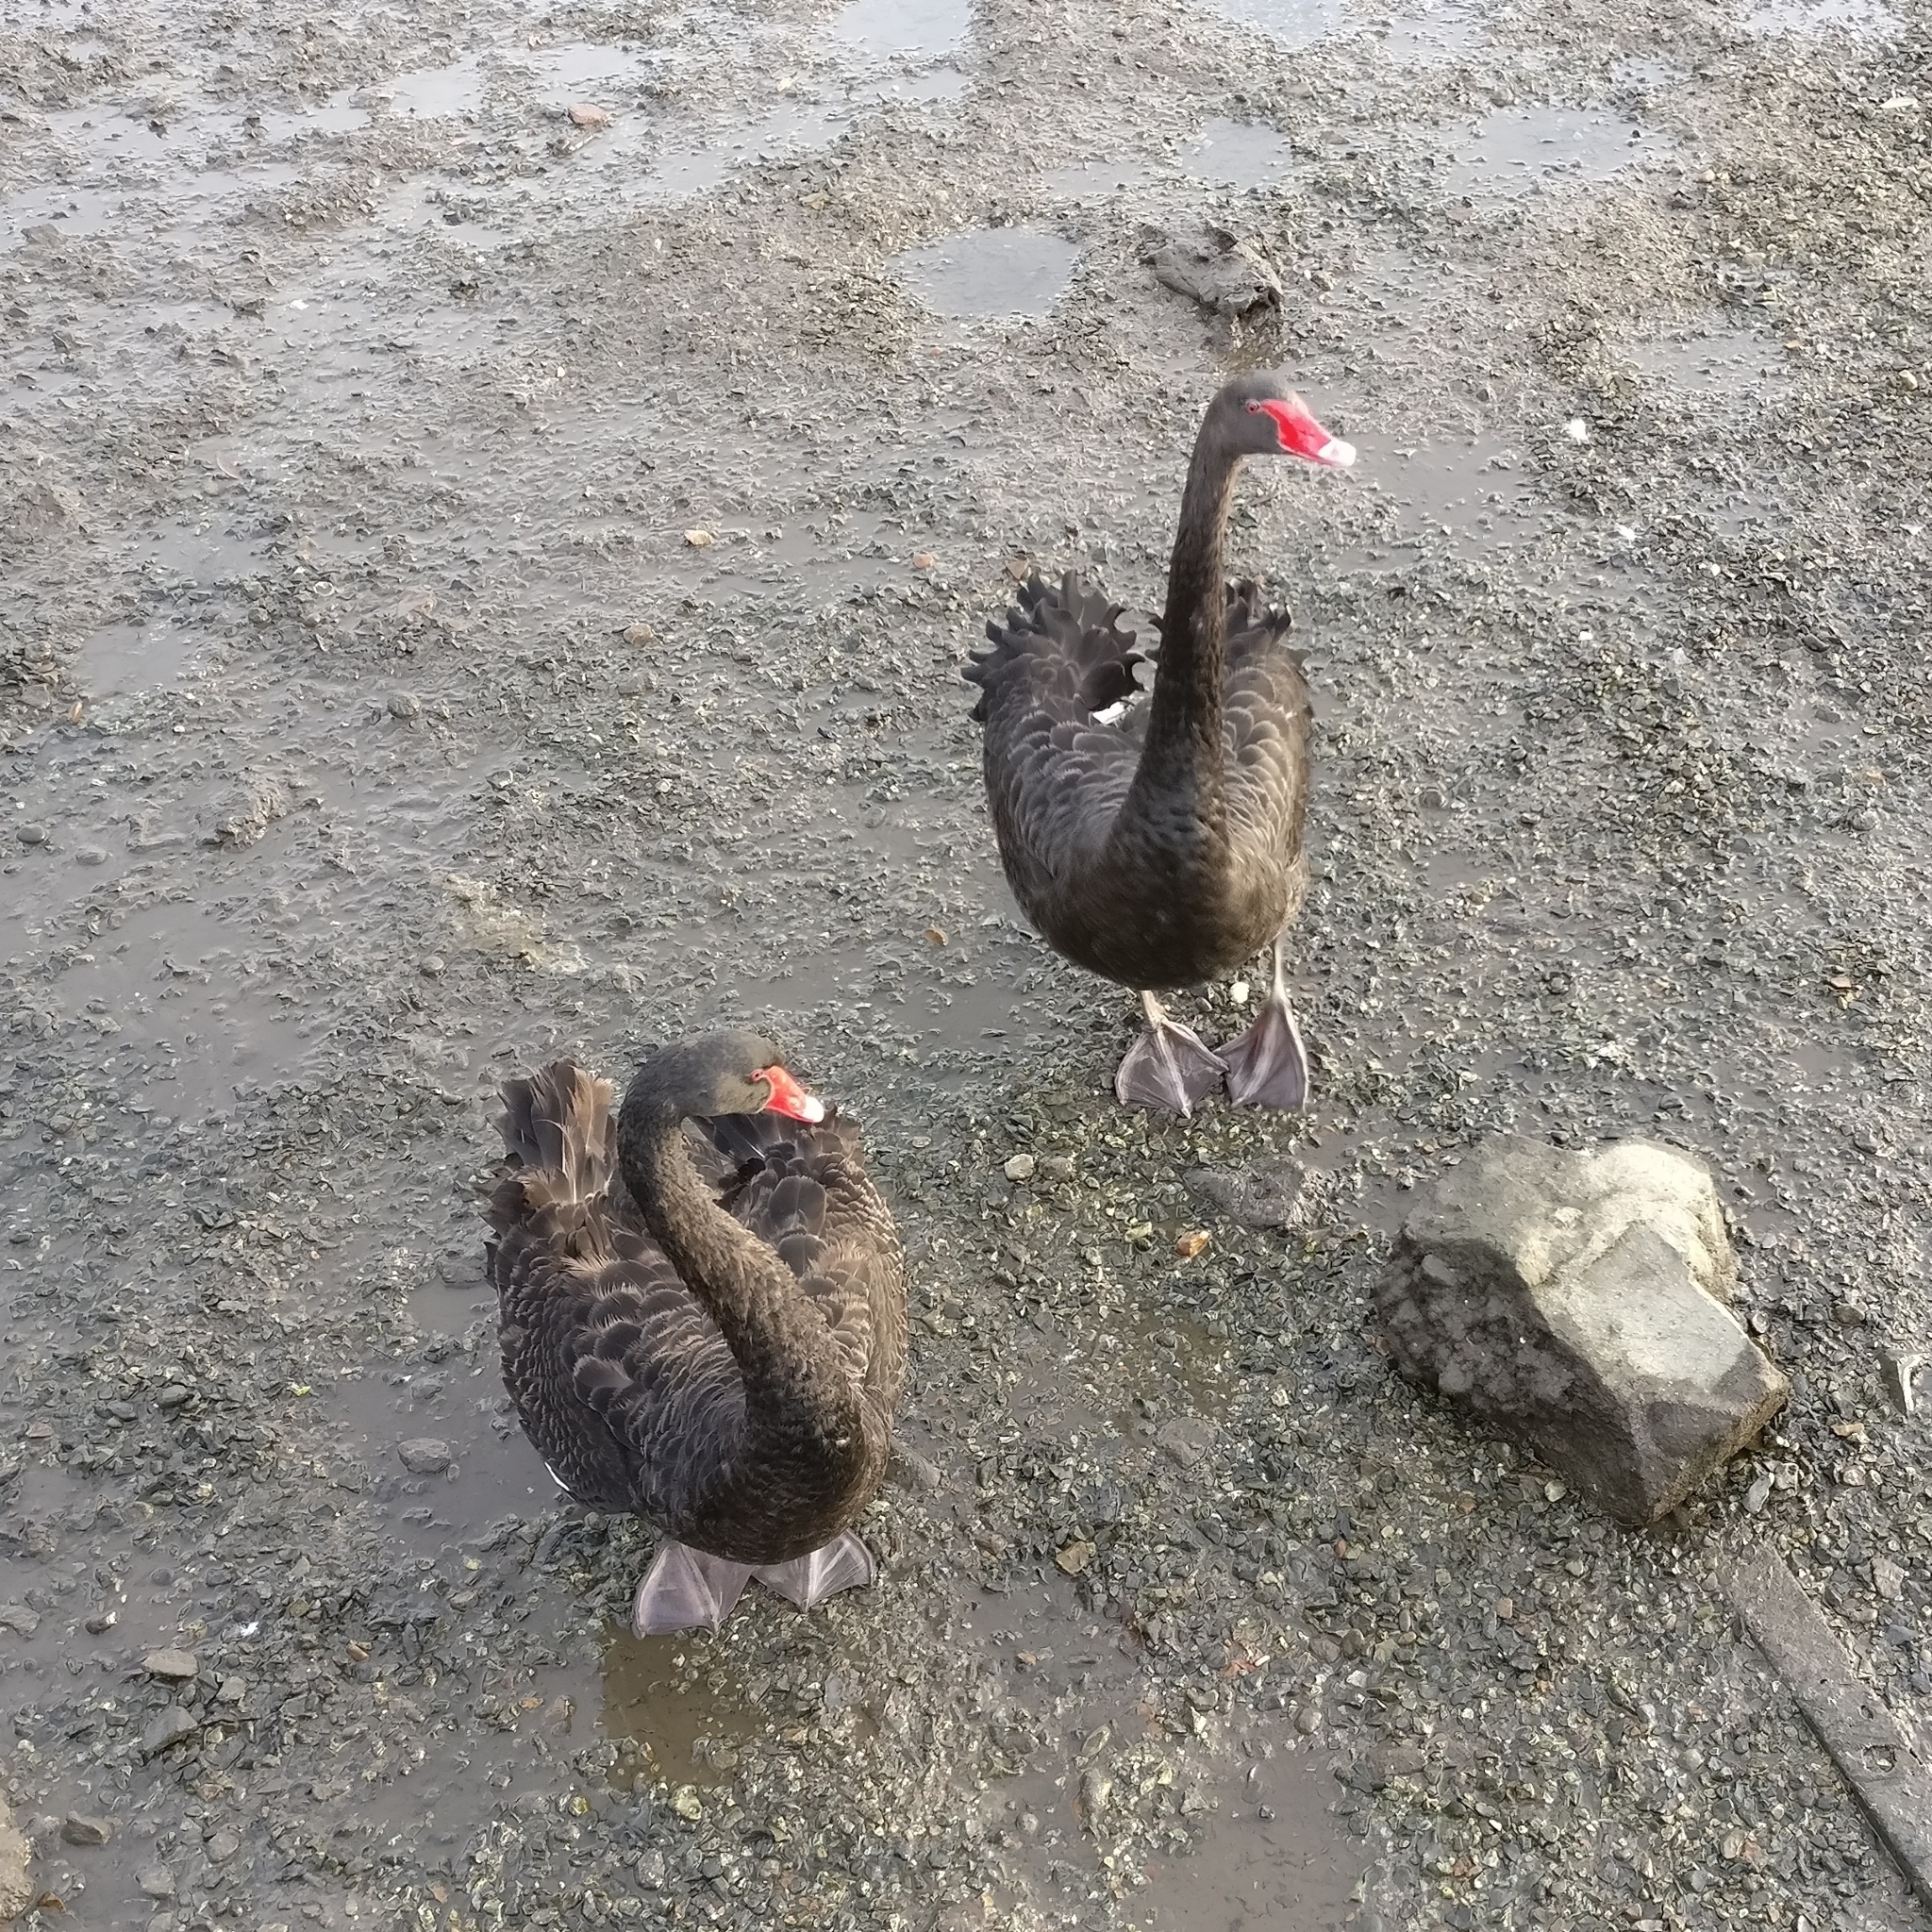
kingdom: Animalia
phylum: Chordata
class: Aves
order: Anseriformes
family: Anatidae
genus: Cygnus
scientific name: Cygnus atratus
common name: Black swan
